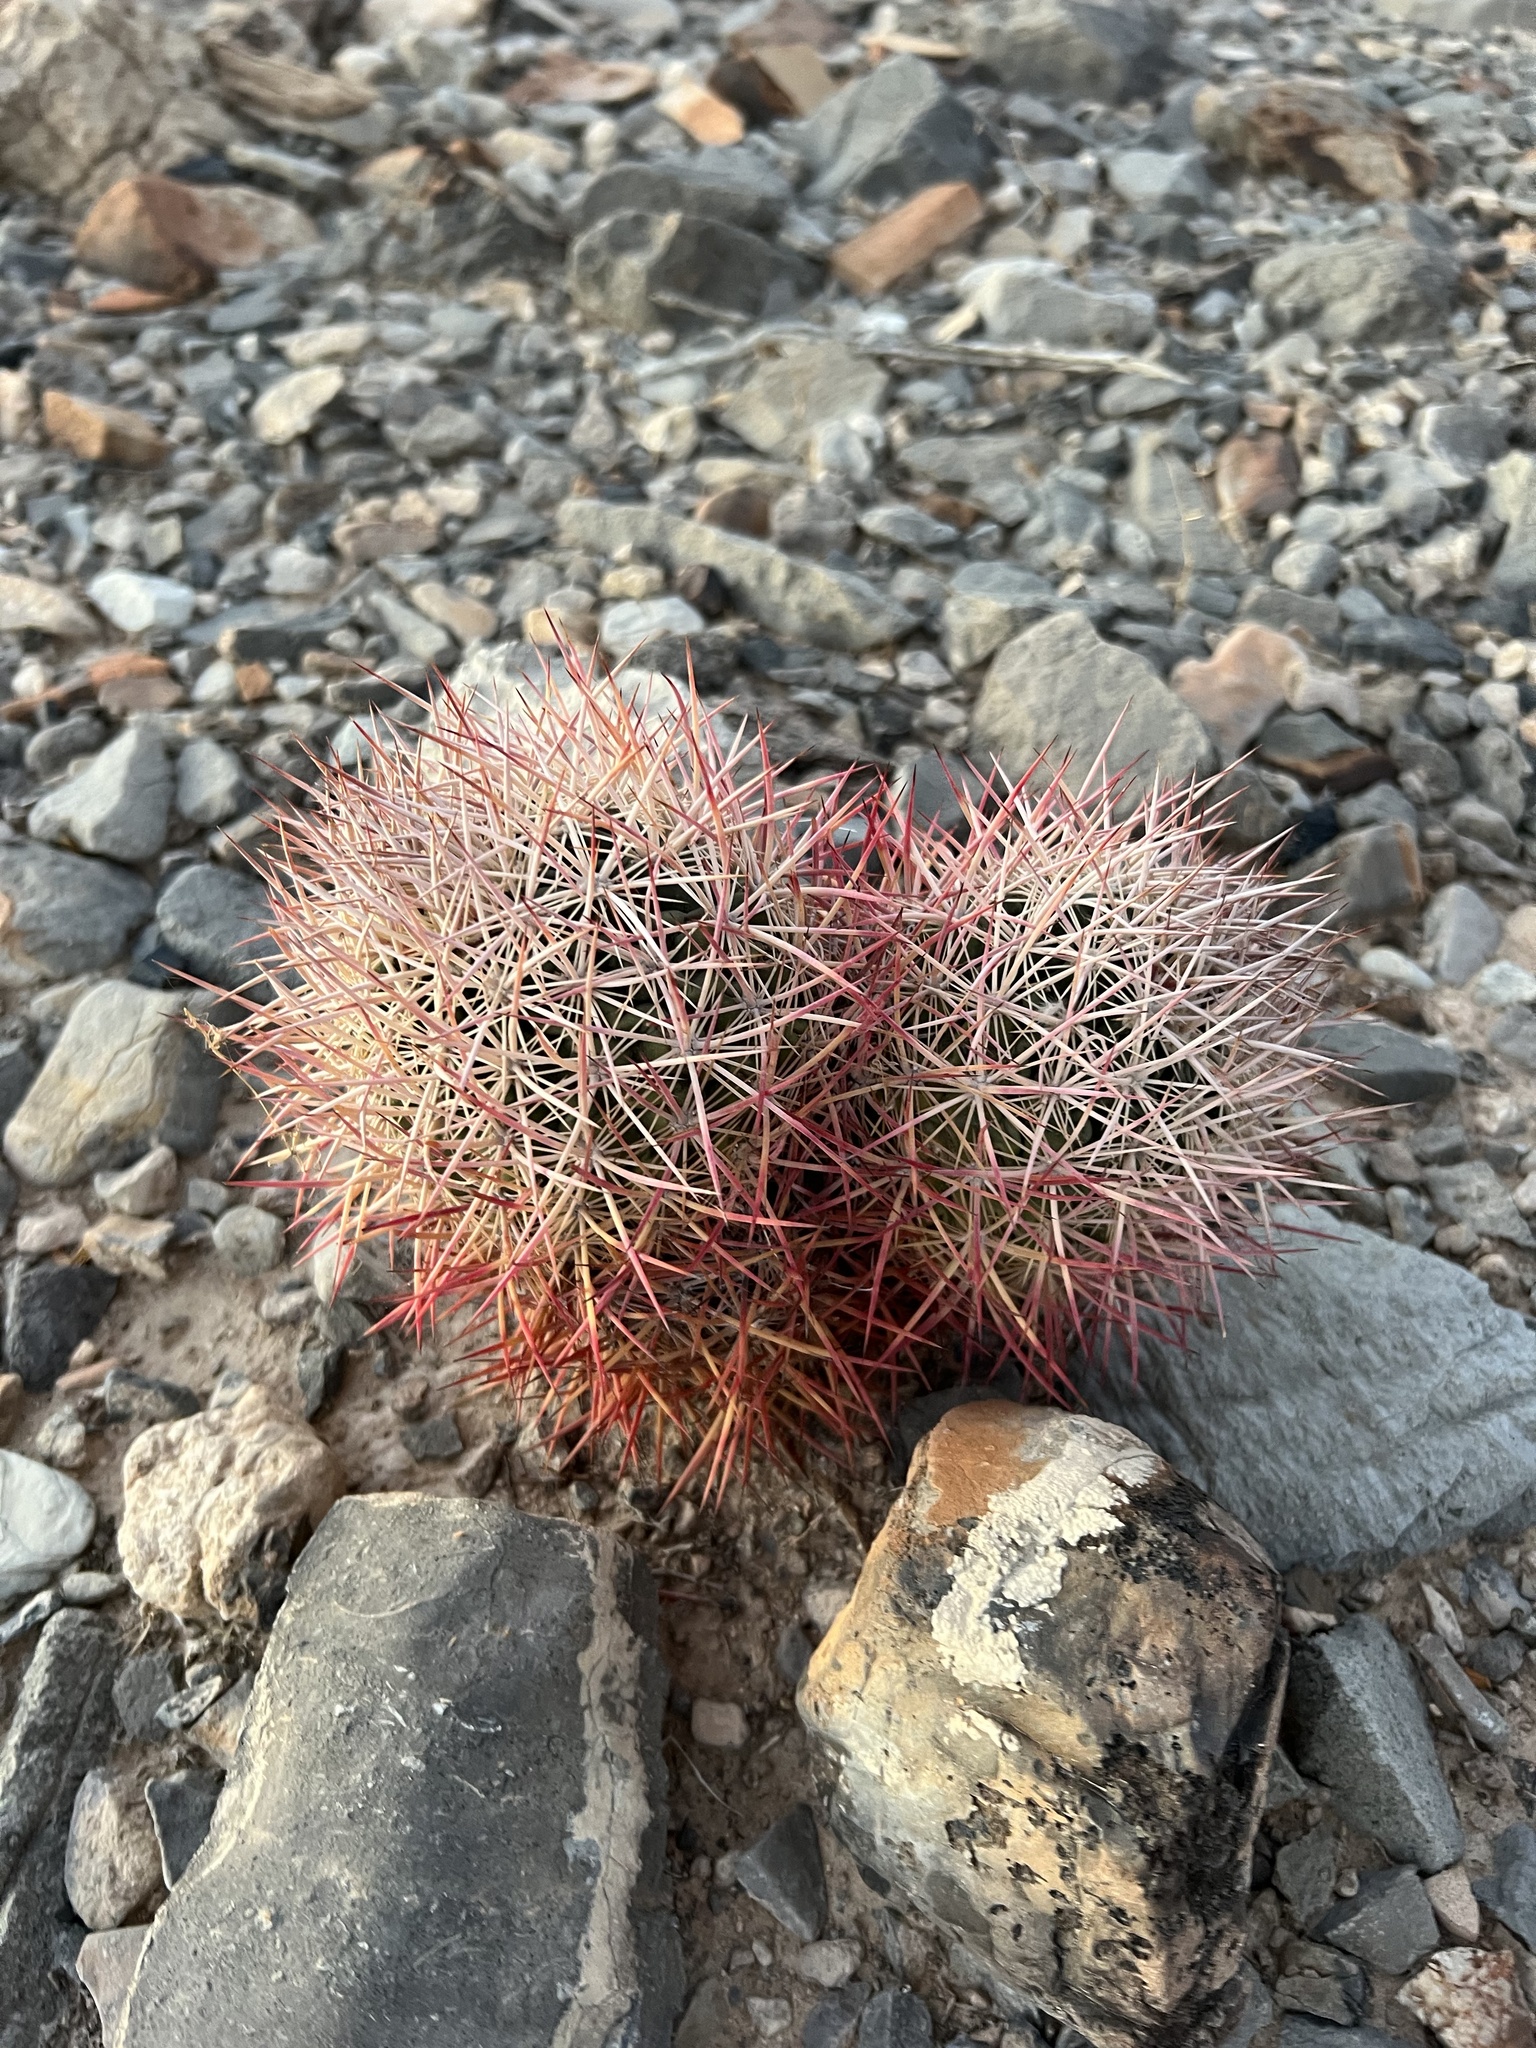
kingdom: Plantae
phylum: Tracheophyta
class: Magnoliopsida
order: Caryophyllales
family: Cactaceae
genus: Sclerocactus
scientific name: Sclerocactus johnsonii
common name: Eight-spine fishhook cactus
